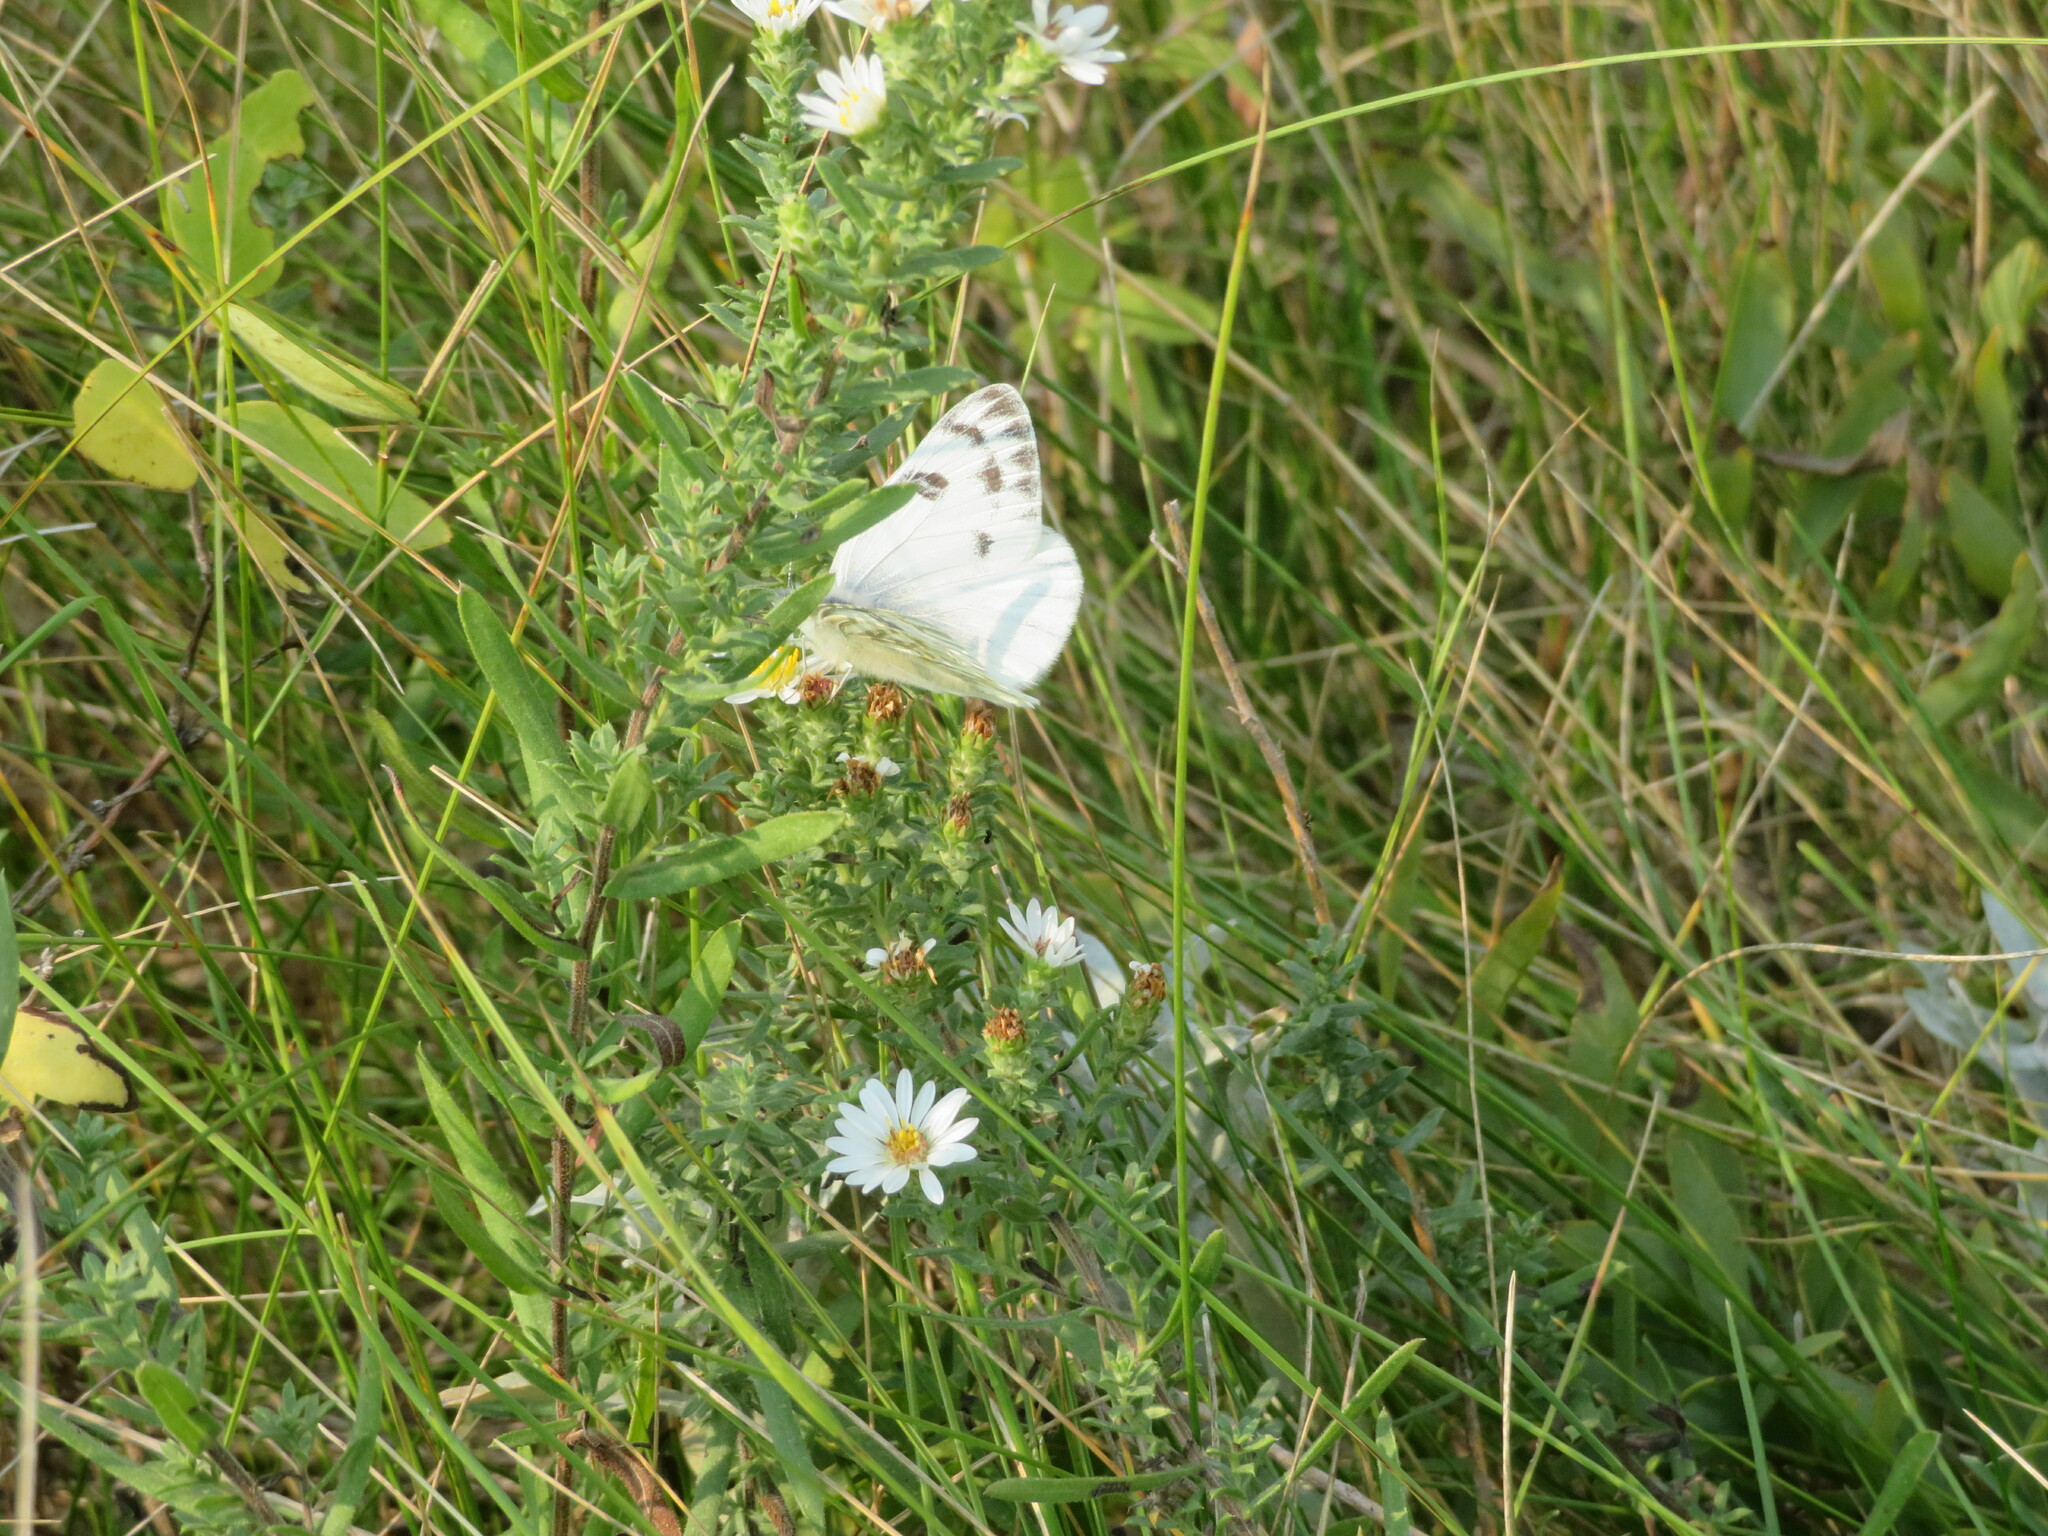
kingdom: Animalia
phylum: Arthropoda
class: Insecta
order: Lepidoptera
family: Pieridae
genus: Pontia
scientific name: Pontia occidentalis
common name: Western white
